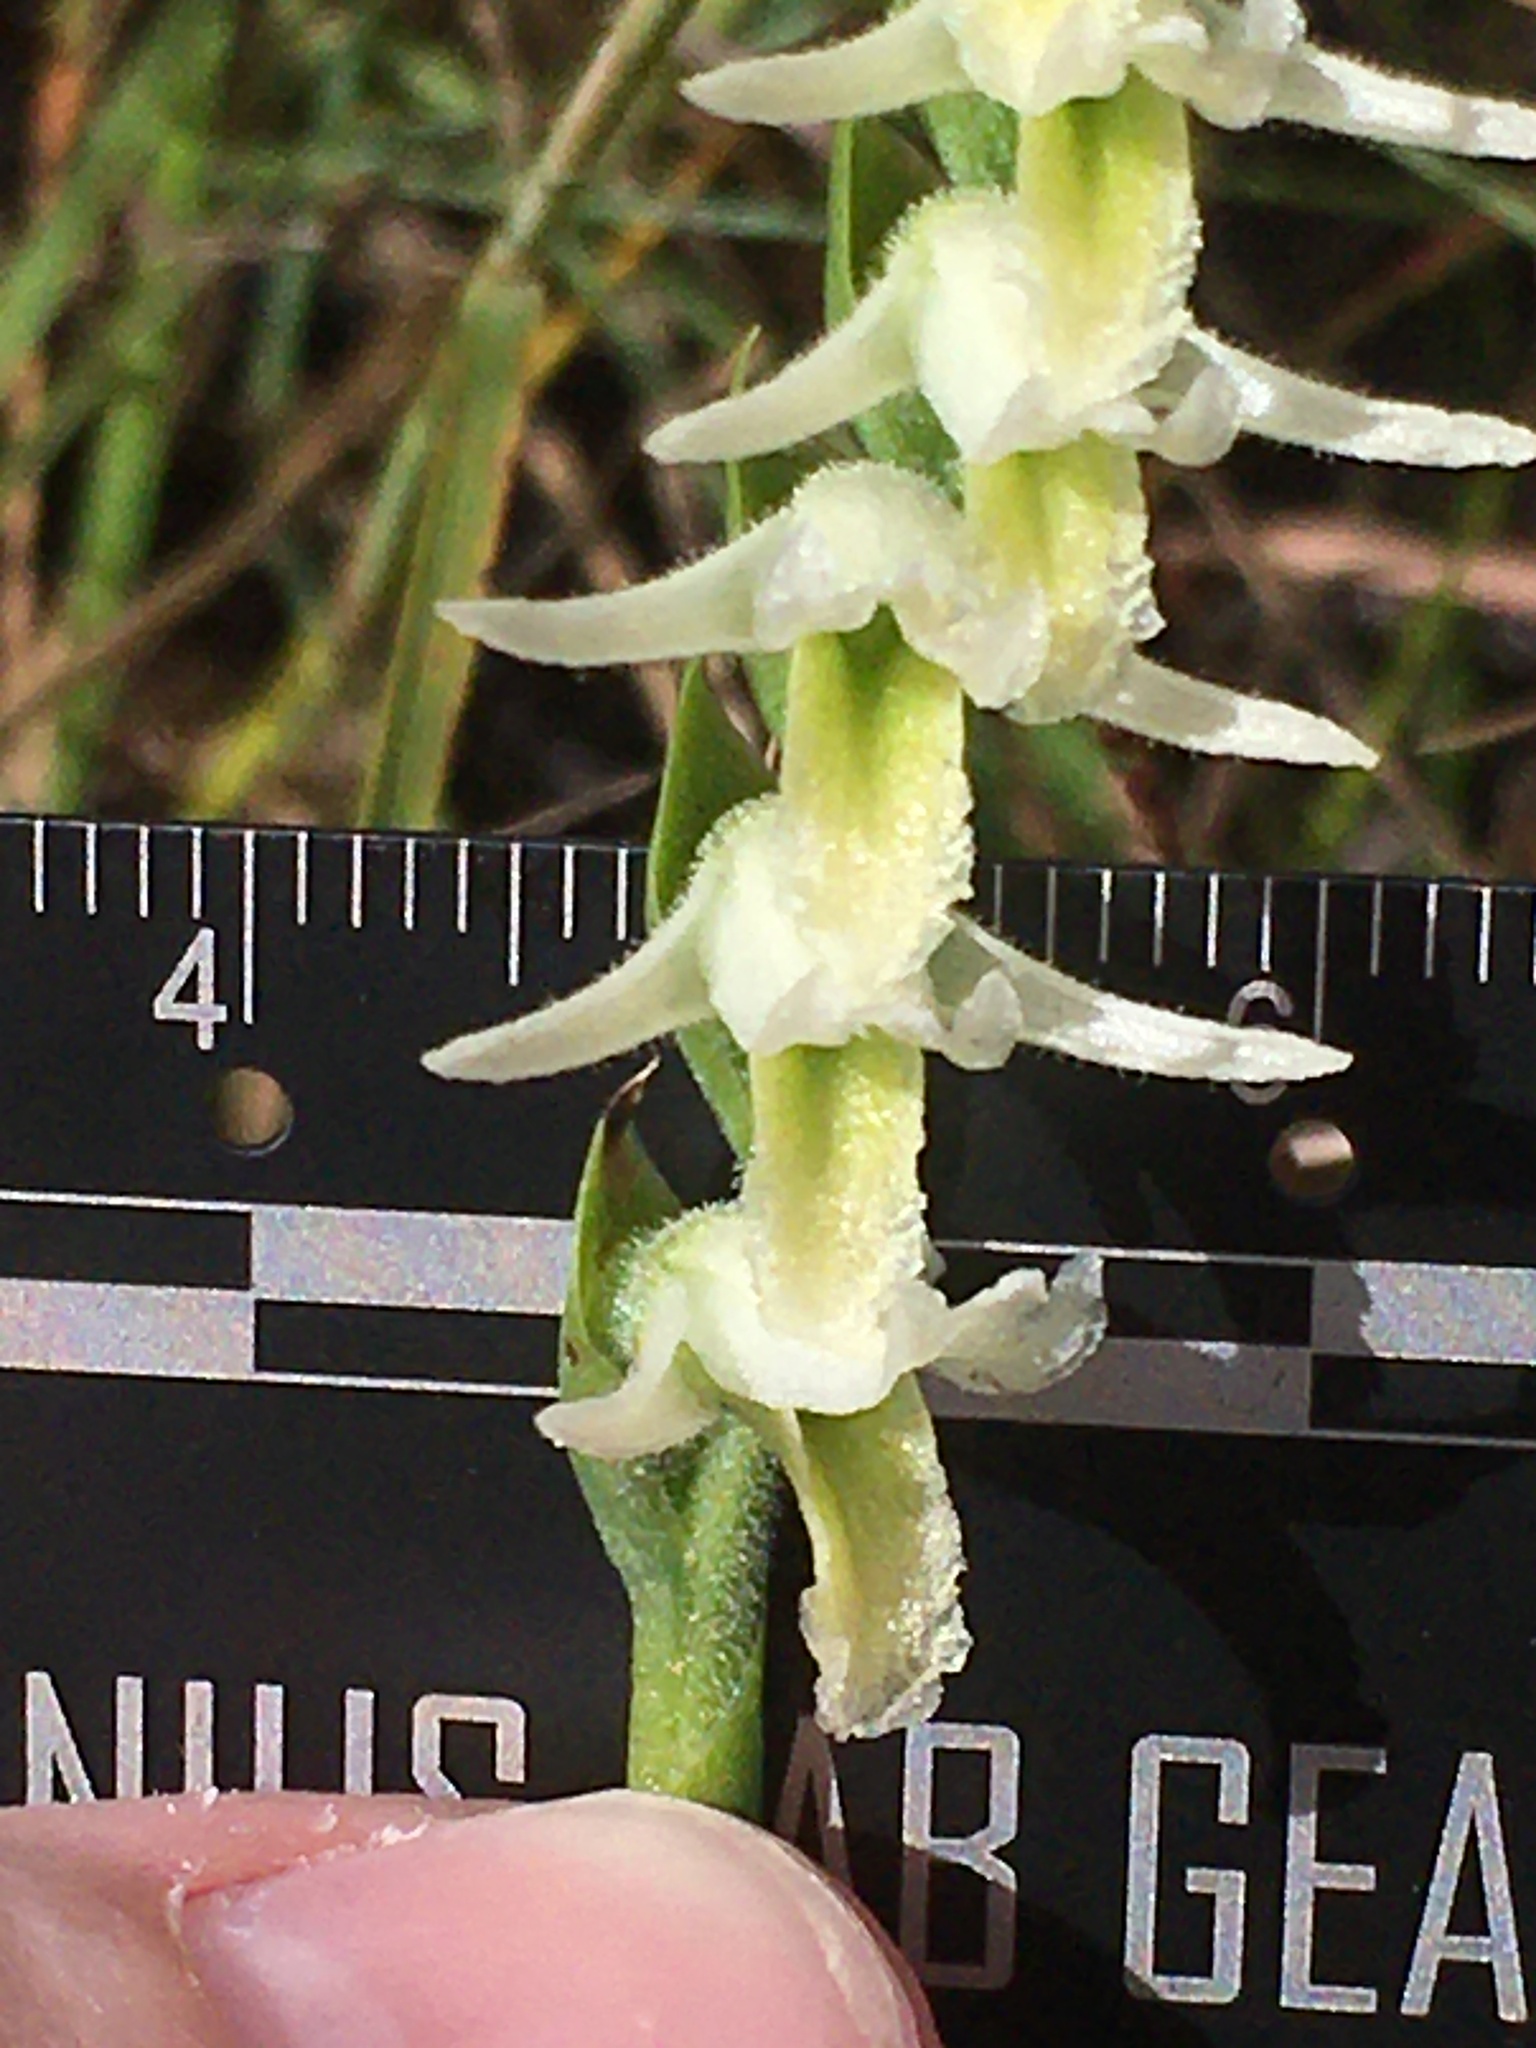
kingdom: Plantae
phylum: Tracheophyta
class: Liliopsida
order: Asparagales
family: Orchidaceae
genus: Spiranthes
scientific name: Spiranthes longilabris
